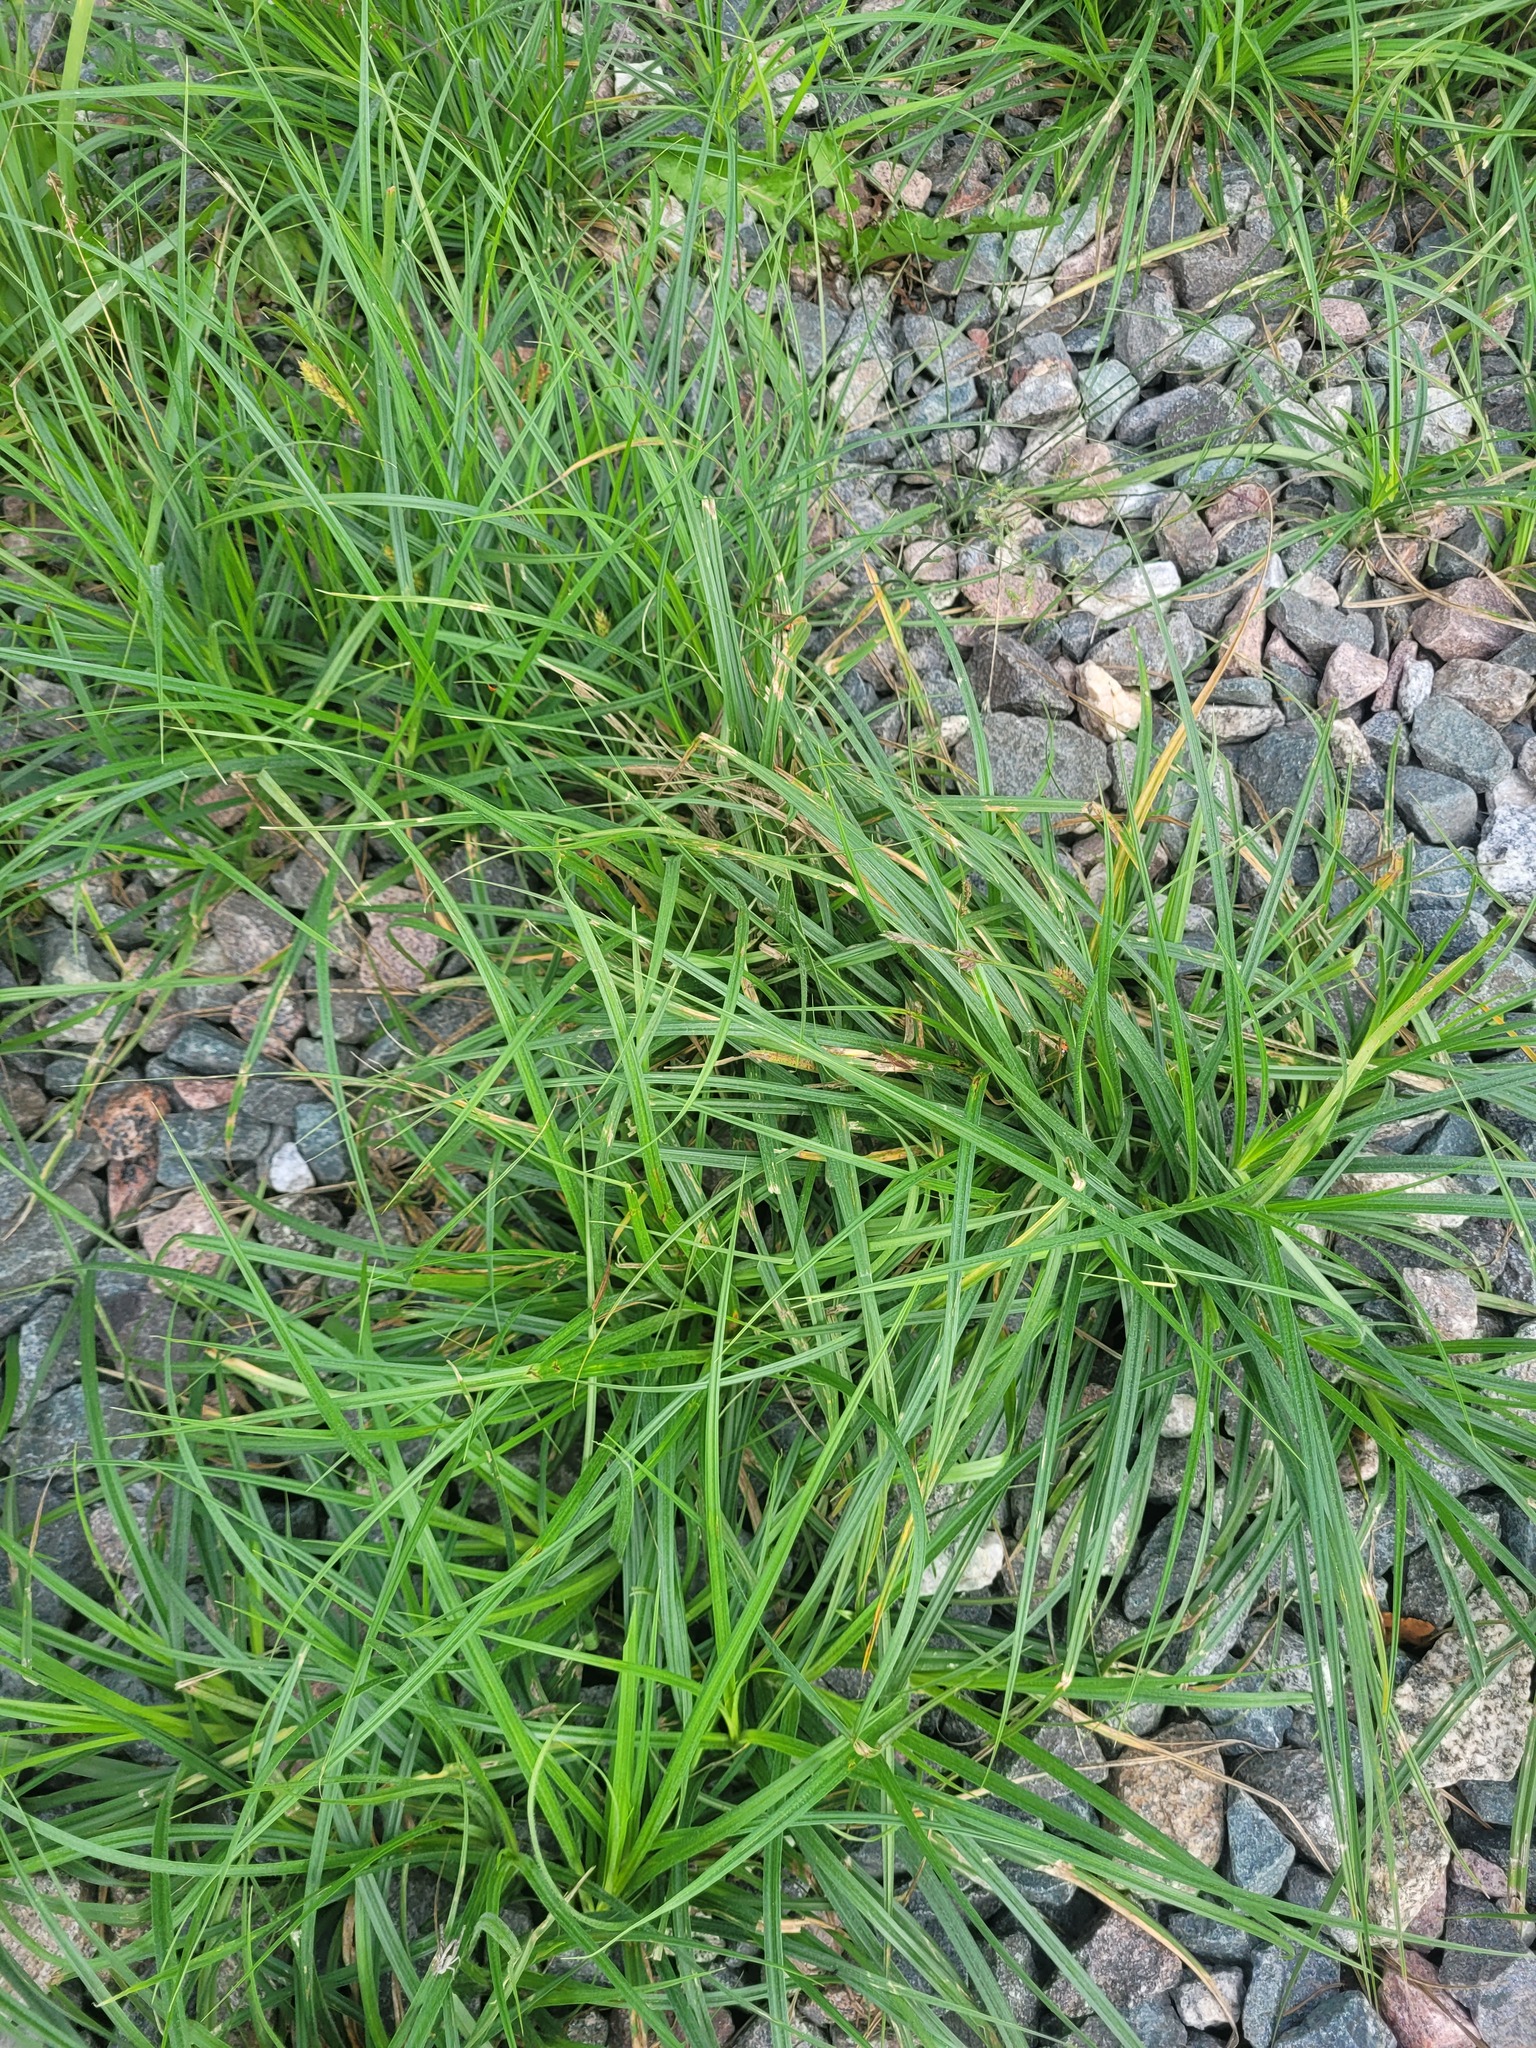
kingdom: Plantae
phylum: Tracheophyta
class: Liliopsida
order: Poales
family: Cyperaceae
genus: Carex
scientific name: Carex hirta
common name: Hairy sedge
